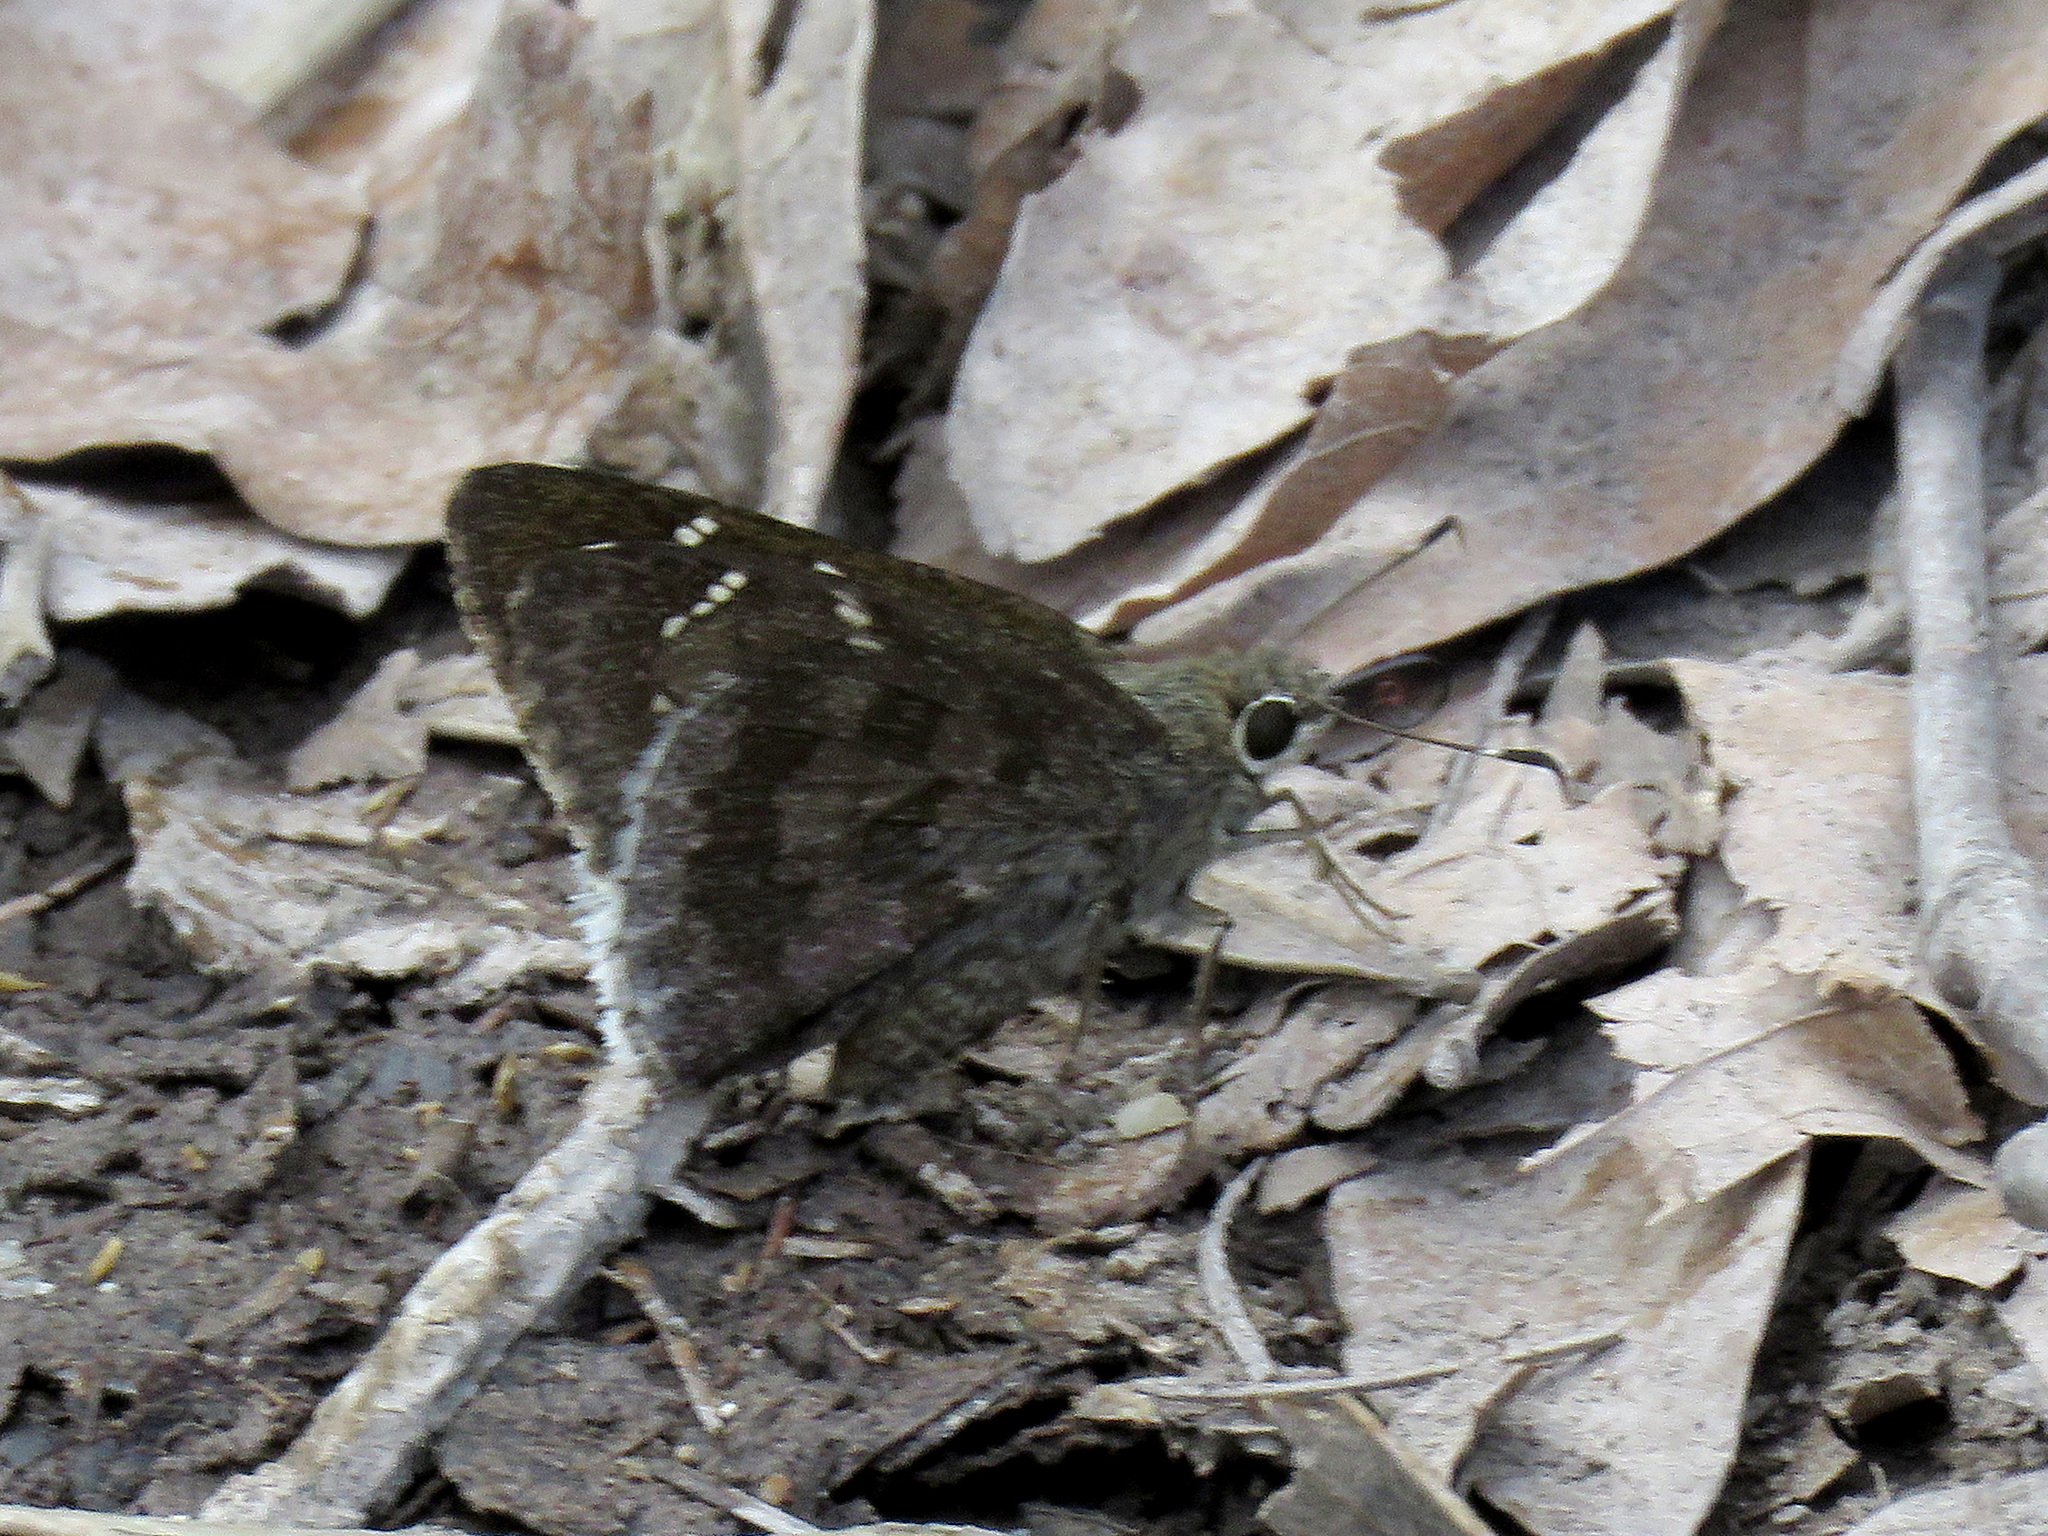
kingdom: Animalia
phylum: Arthropoda
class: Insecta
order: Lepidoptera
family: Hesperiidae
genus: Cogia
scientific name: Cogia hippalus
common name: Acacia skipper
